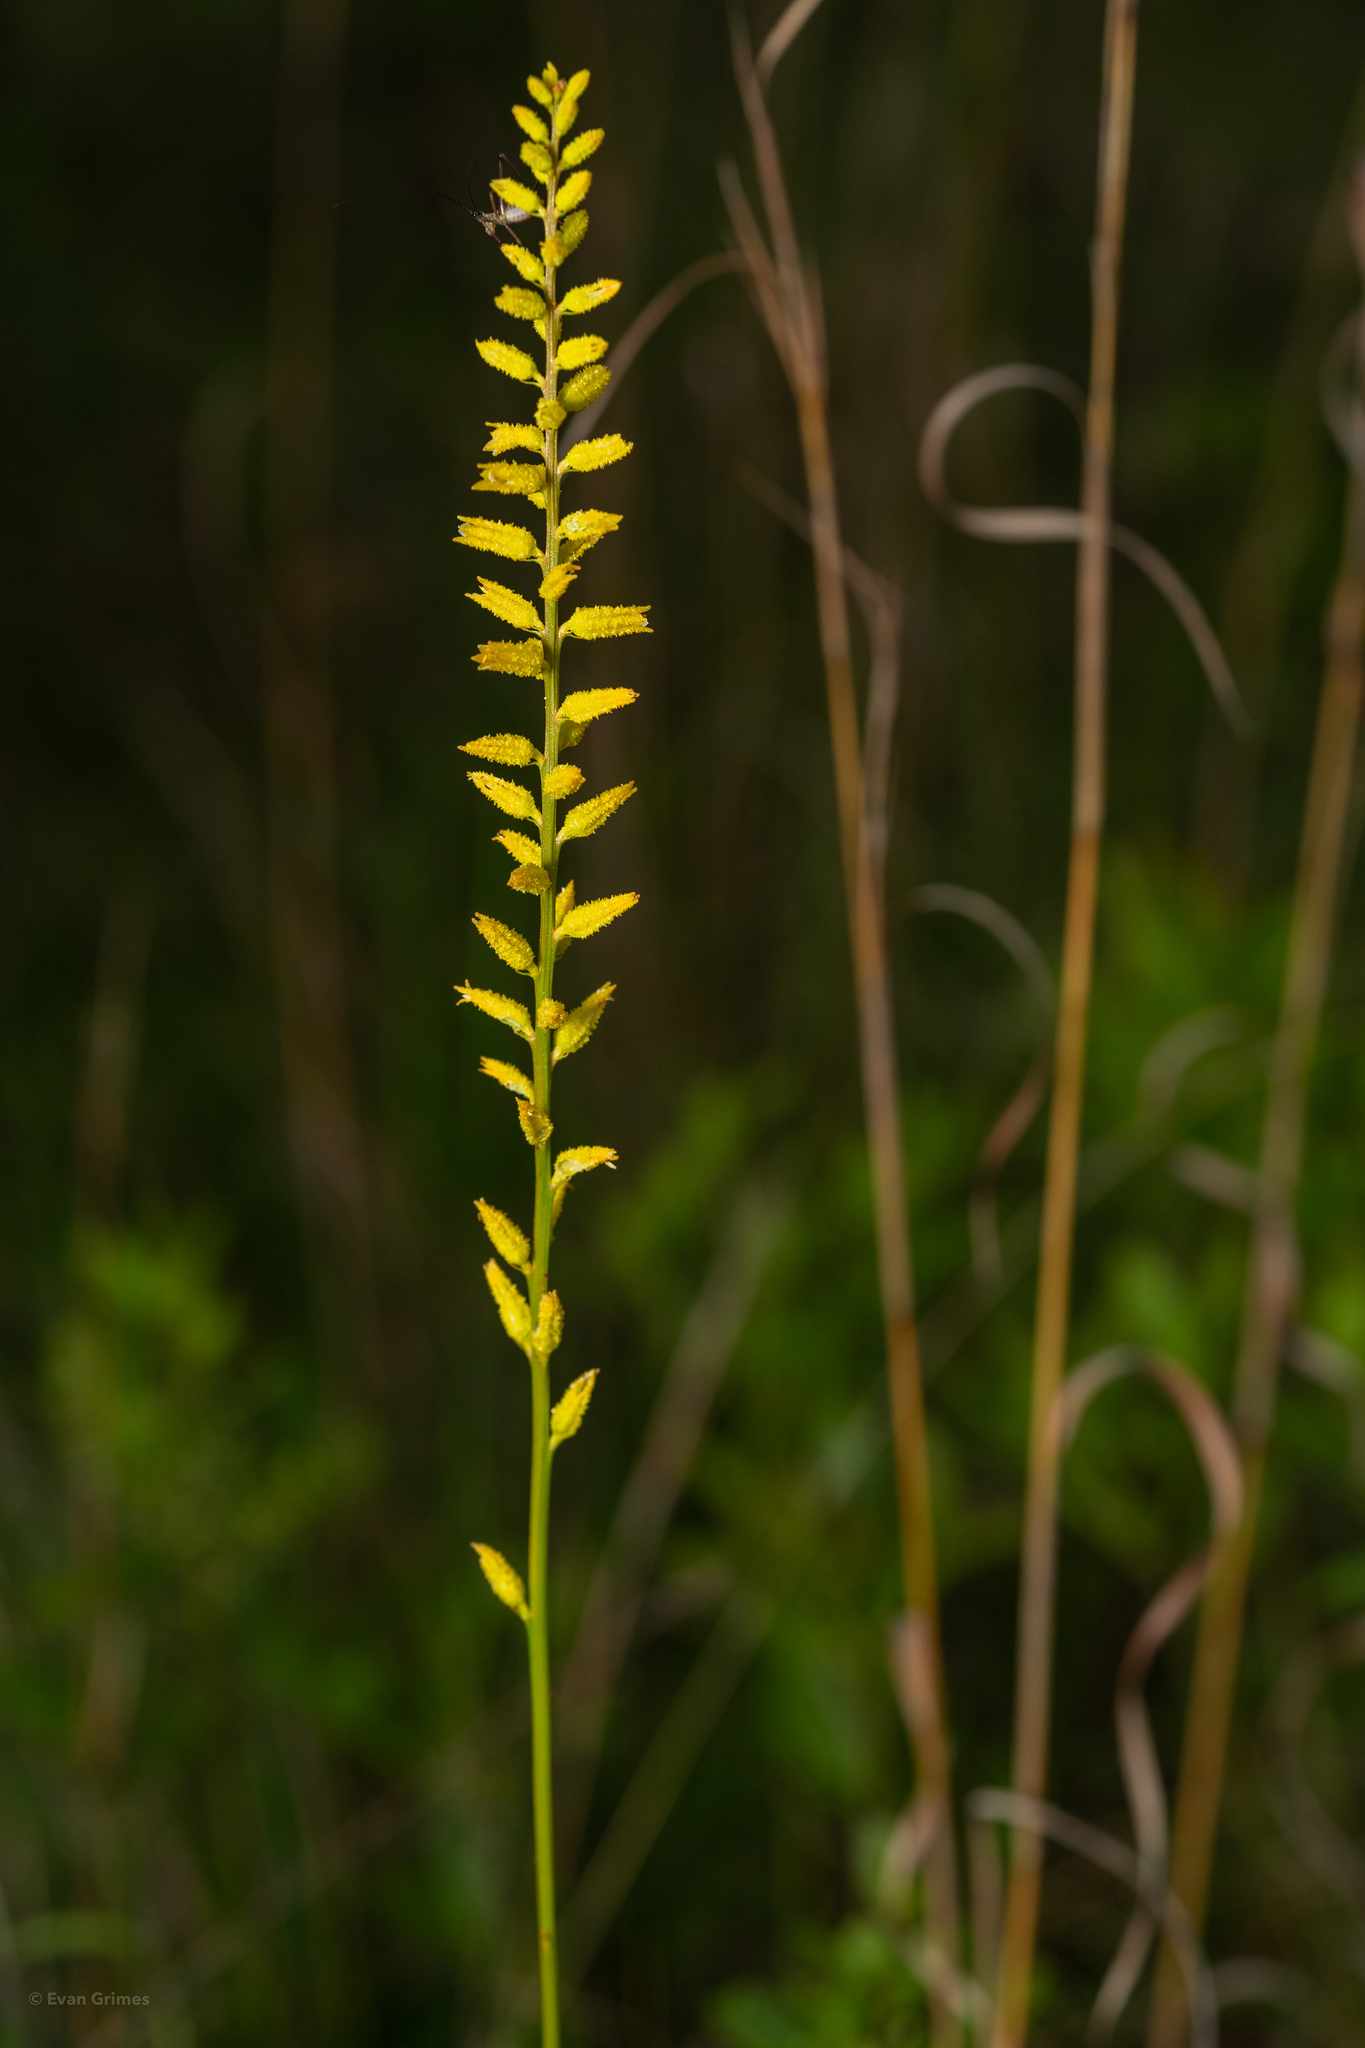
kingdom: Plantae
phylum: Tracheophyta
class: Liliopsida
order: Dioscoreales
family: Nartheciaceae
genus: Aletris
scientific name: Aletris lutea
